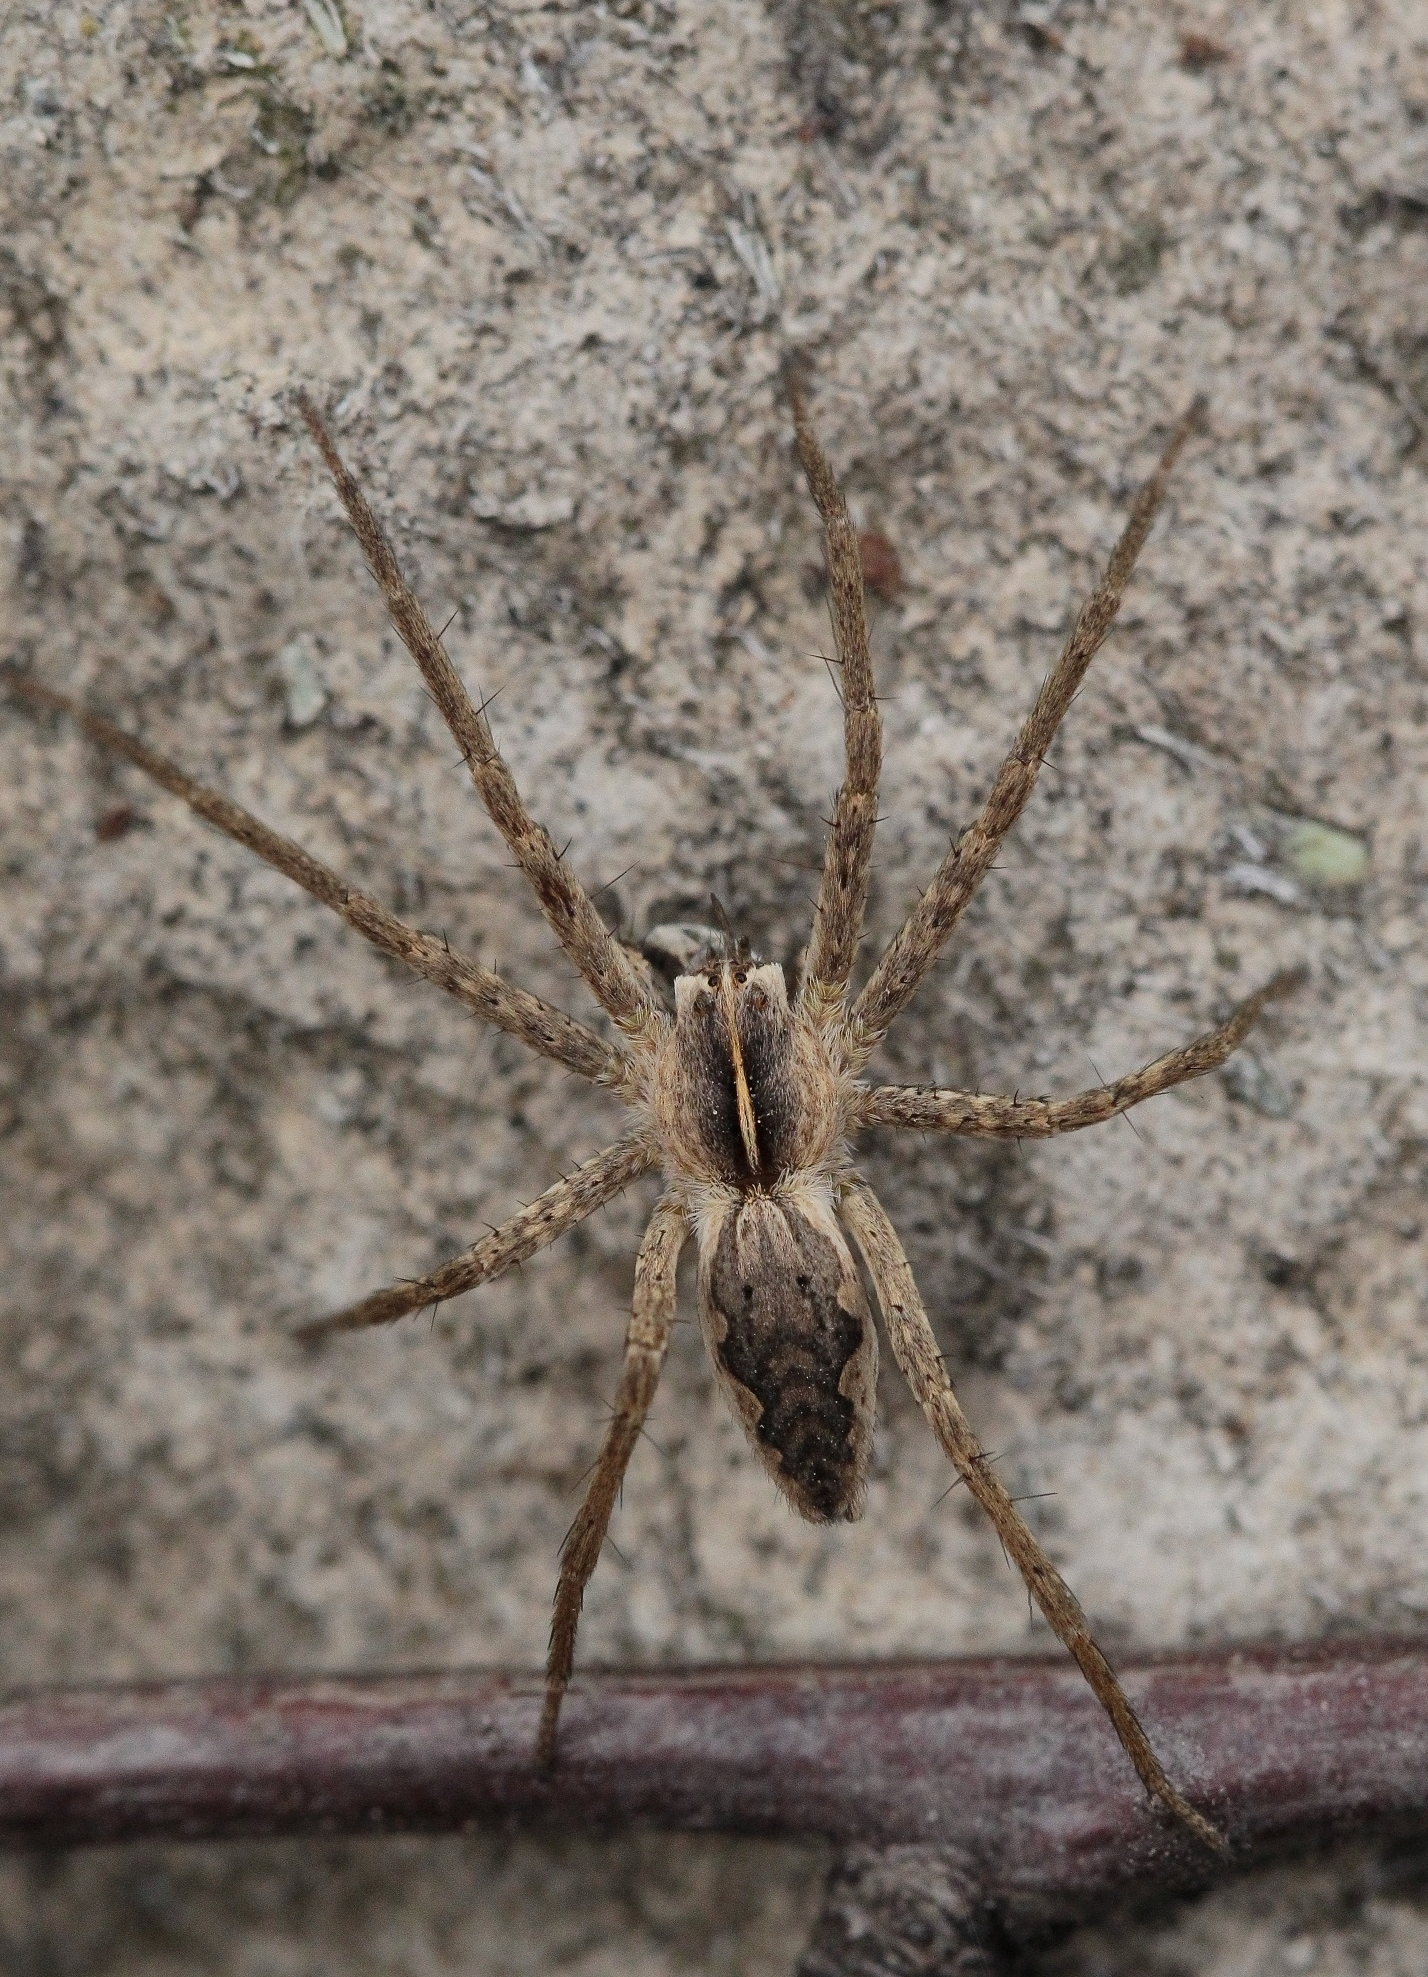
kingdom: Animalia
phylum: Arthropoda
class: Arachnida
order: Araneae
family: Pisauridae
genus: Pisaura
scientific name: Pisaura
